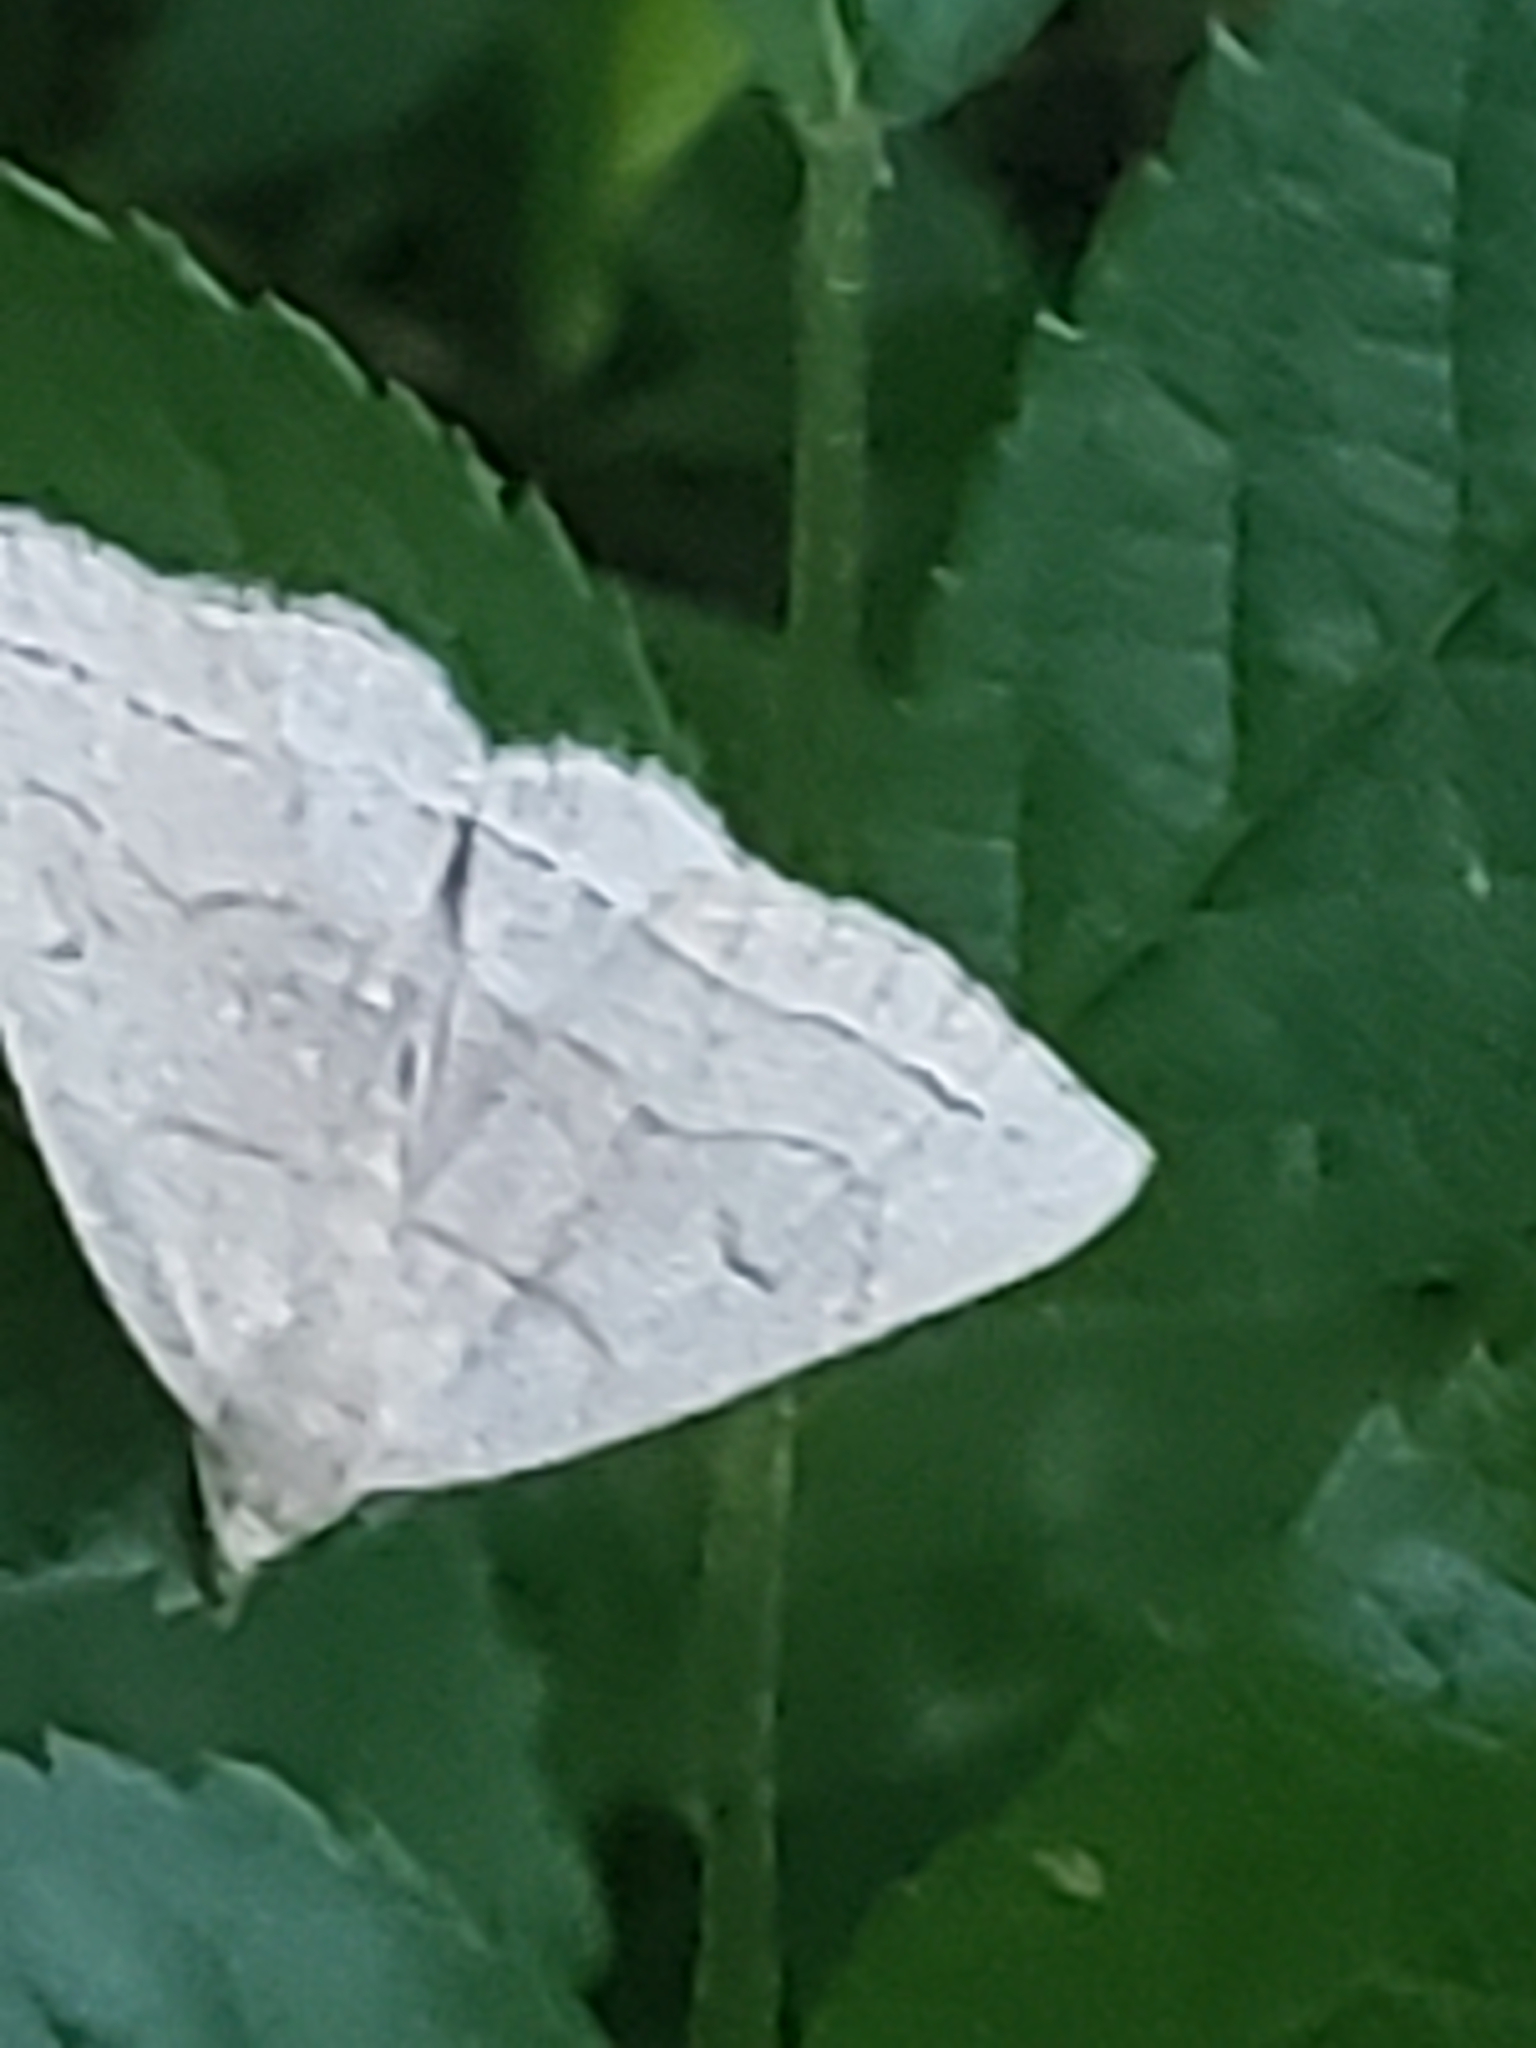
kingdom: Animalia
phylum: Arthropoda
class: Insecta
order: Lepidoptera
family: Erebidae
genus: Zanclognatha
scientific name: Zanclognatha pedipilalis
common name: Grayish fan-foot
